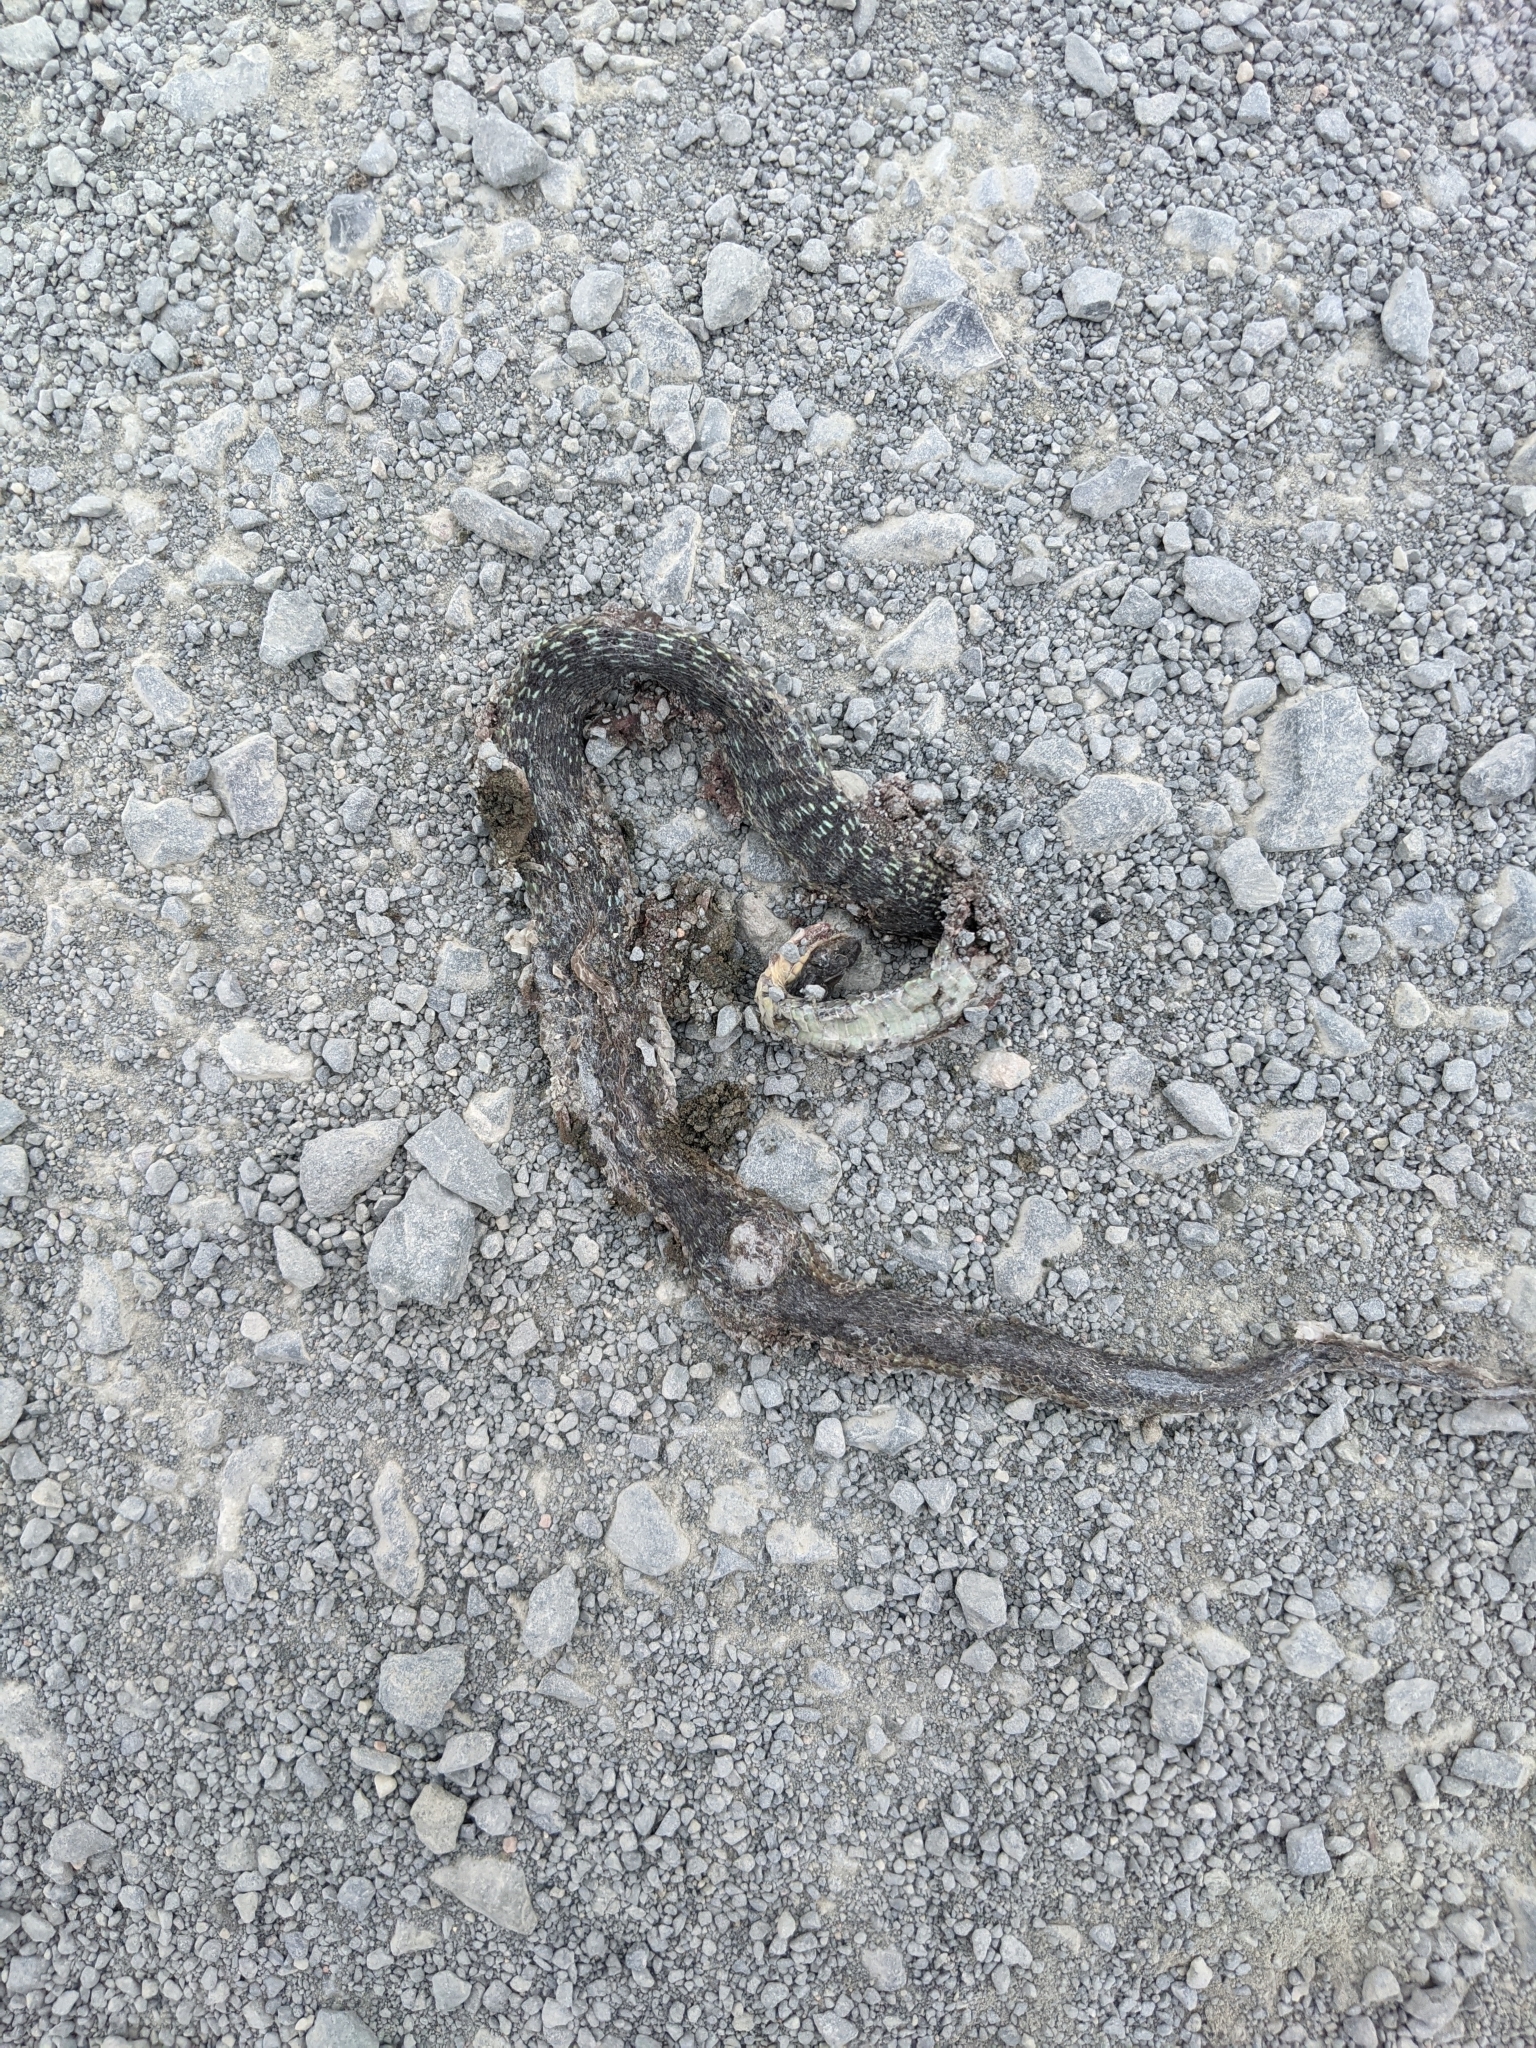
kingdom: Animalia
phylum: Chordata
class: Squamata
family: Colubridae
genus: Thamnophis
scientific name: Thamnophis sirtalis
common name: Common garter snake
